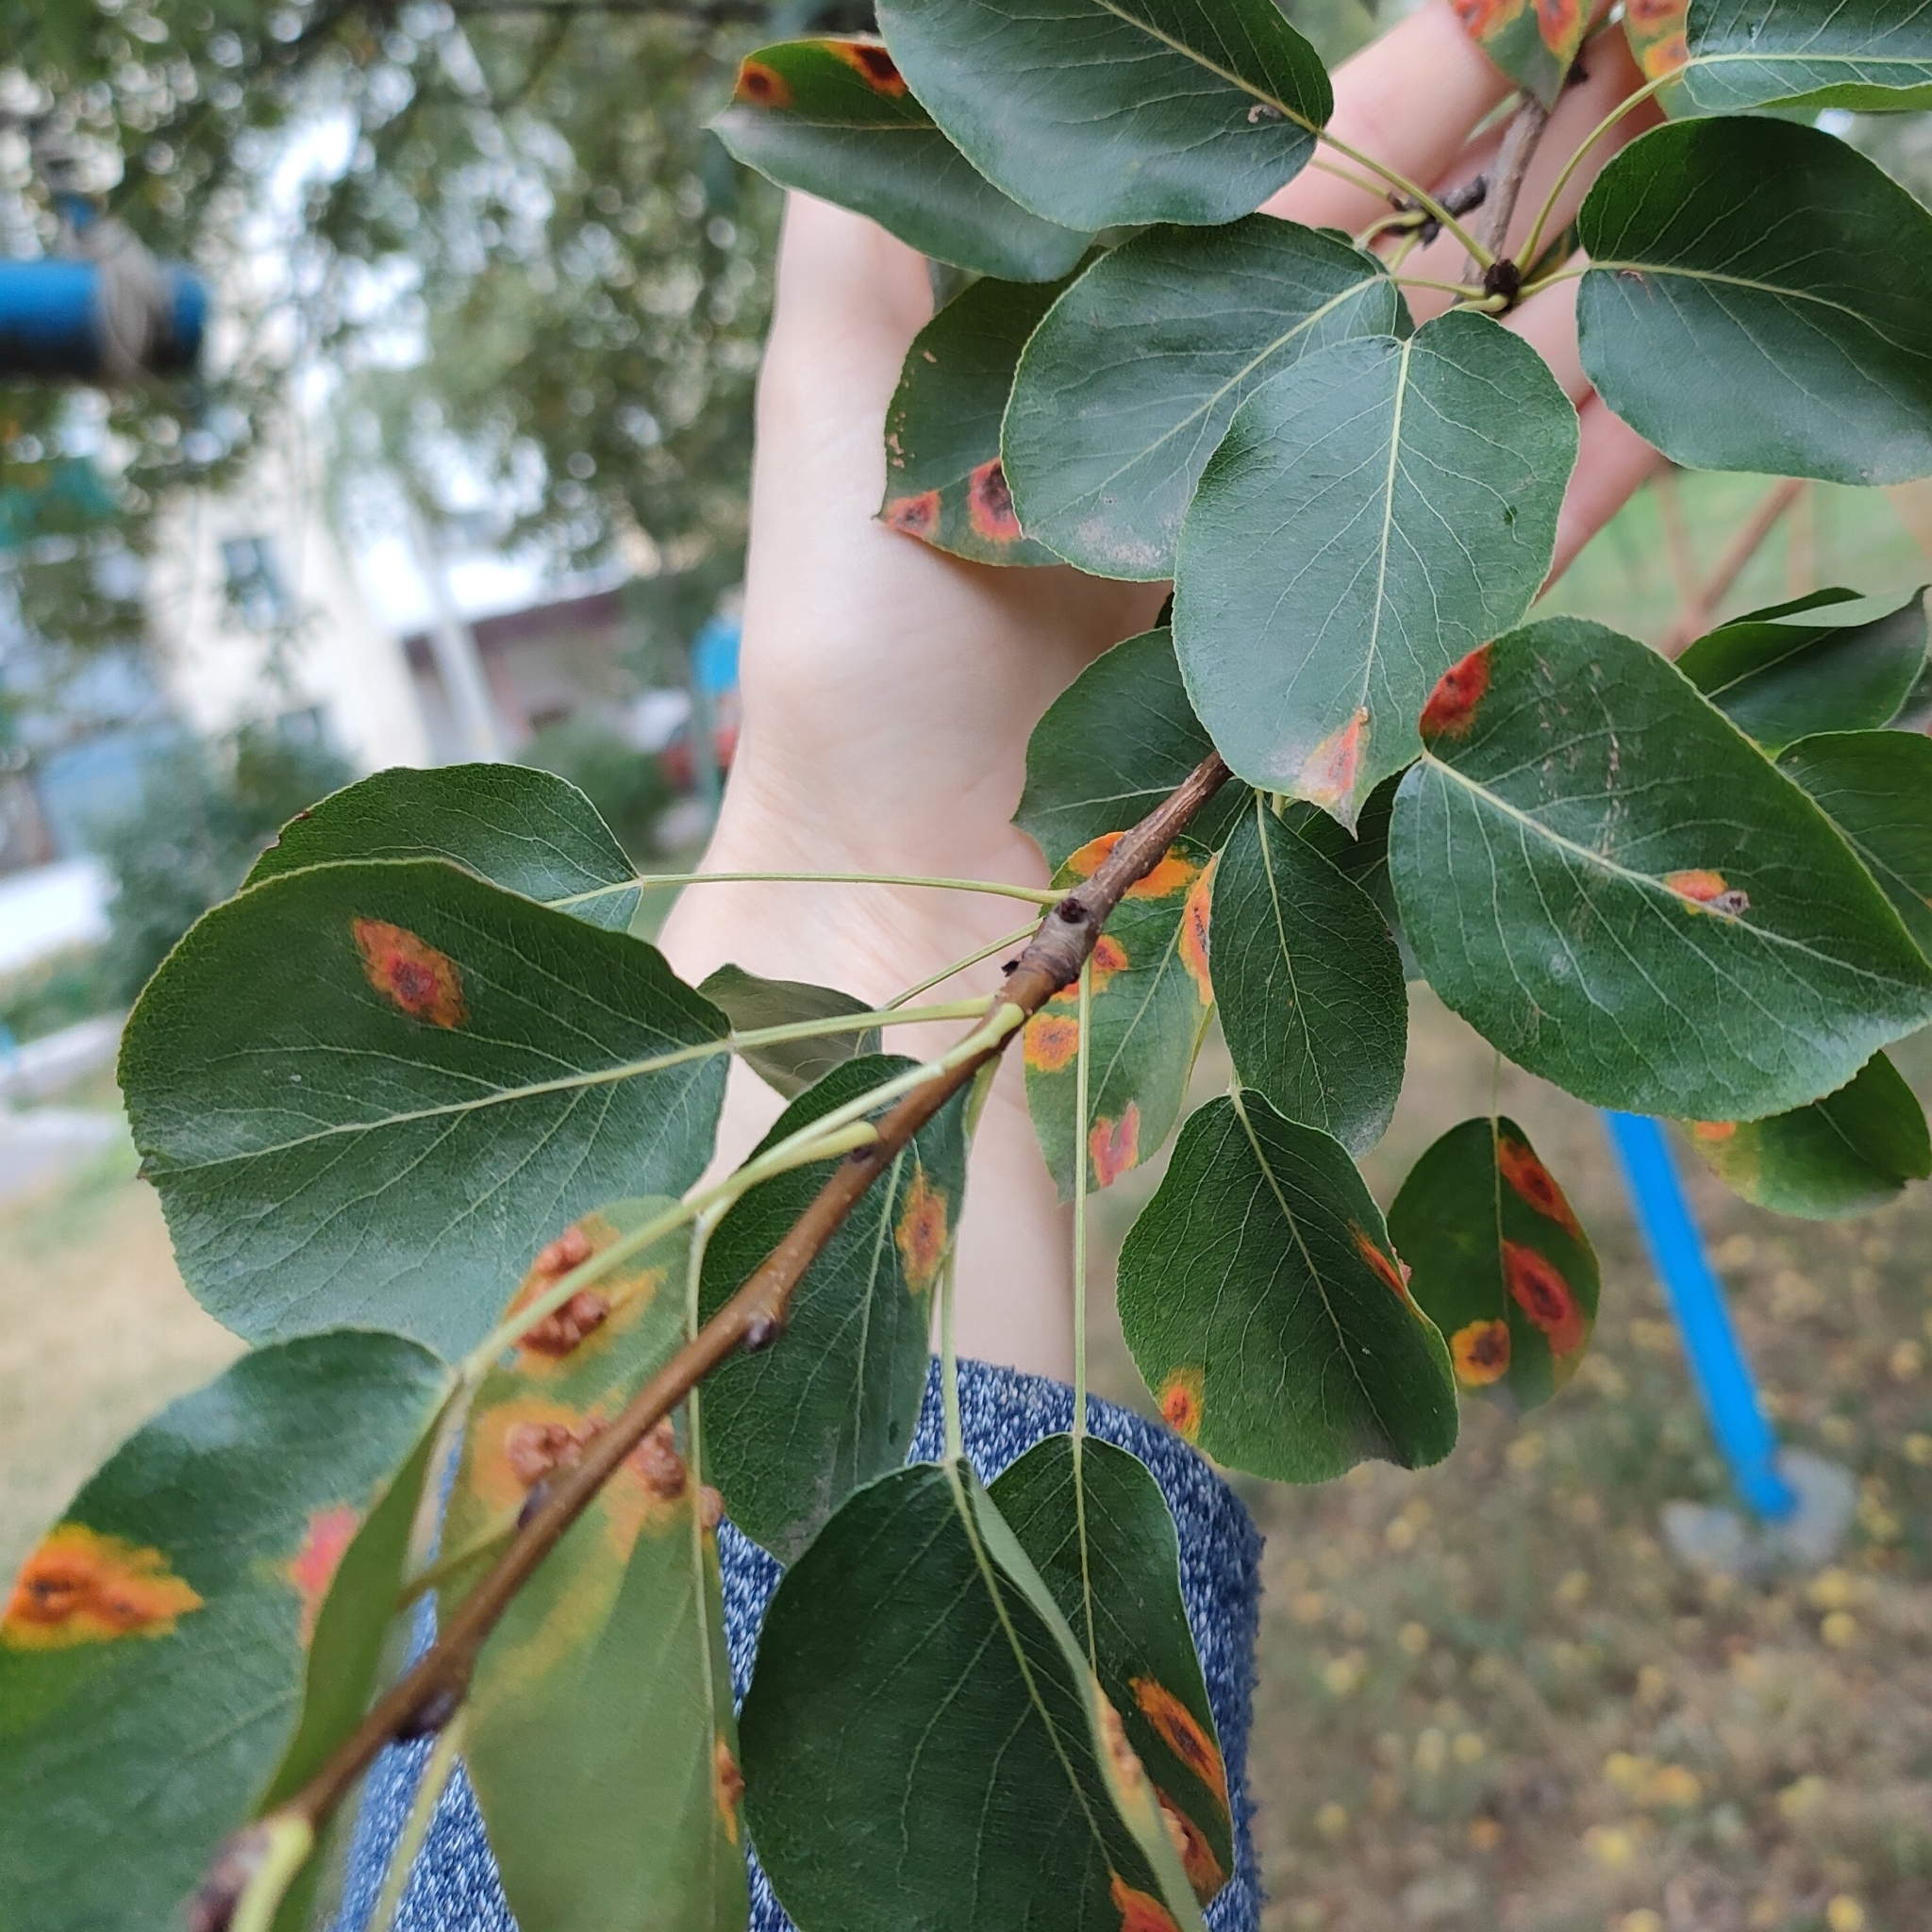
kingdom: Fungi
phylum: Basidiomycota
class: Pucciniomycetes
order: Pucciniales
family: Gymnosporangiaceae
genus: Gymnosporangium
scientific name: Gymnosporangium sabinae
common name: Pear trellis rust fungus
